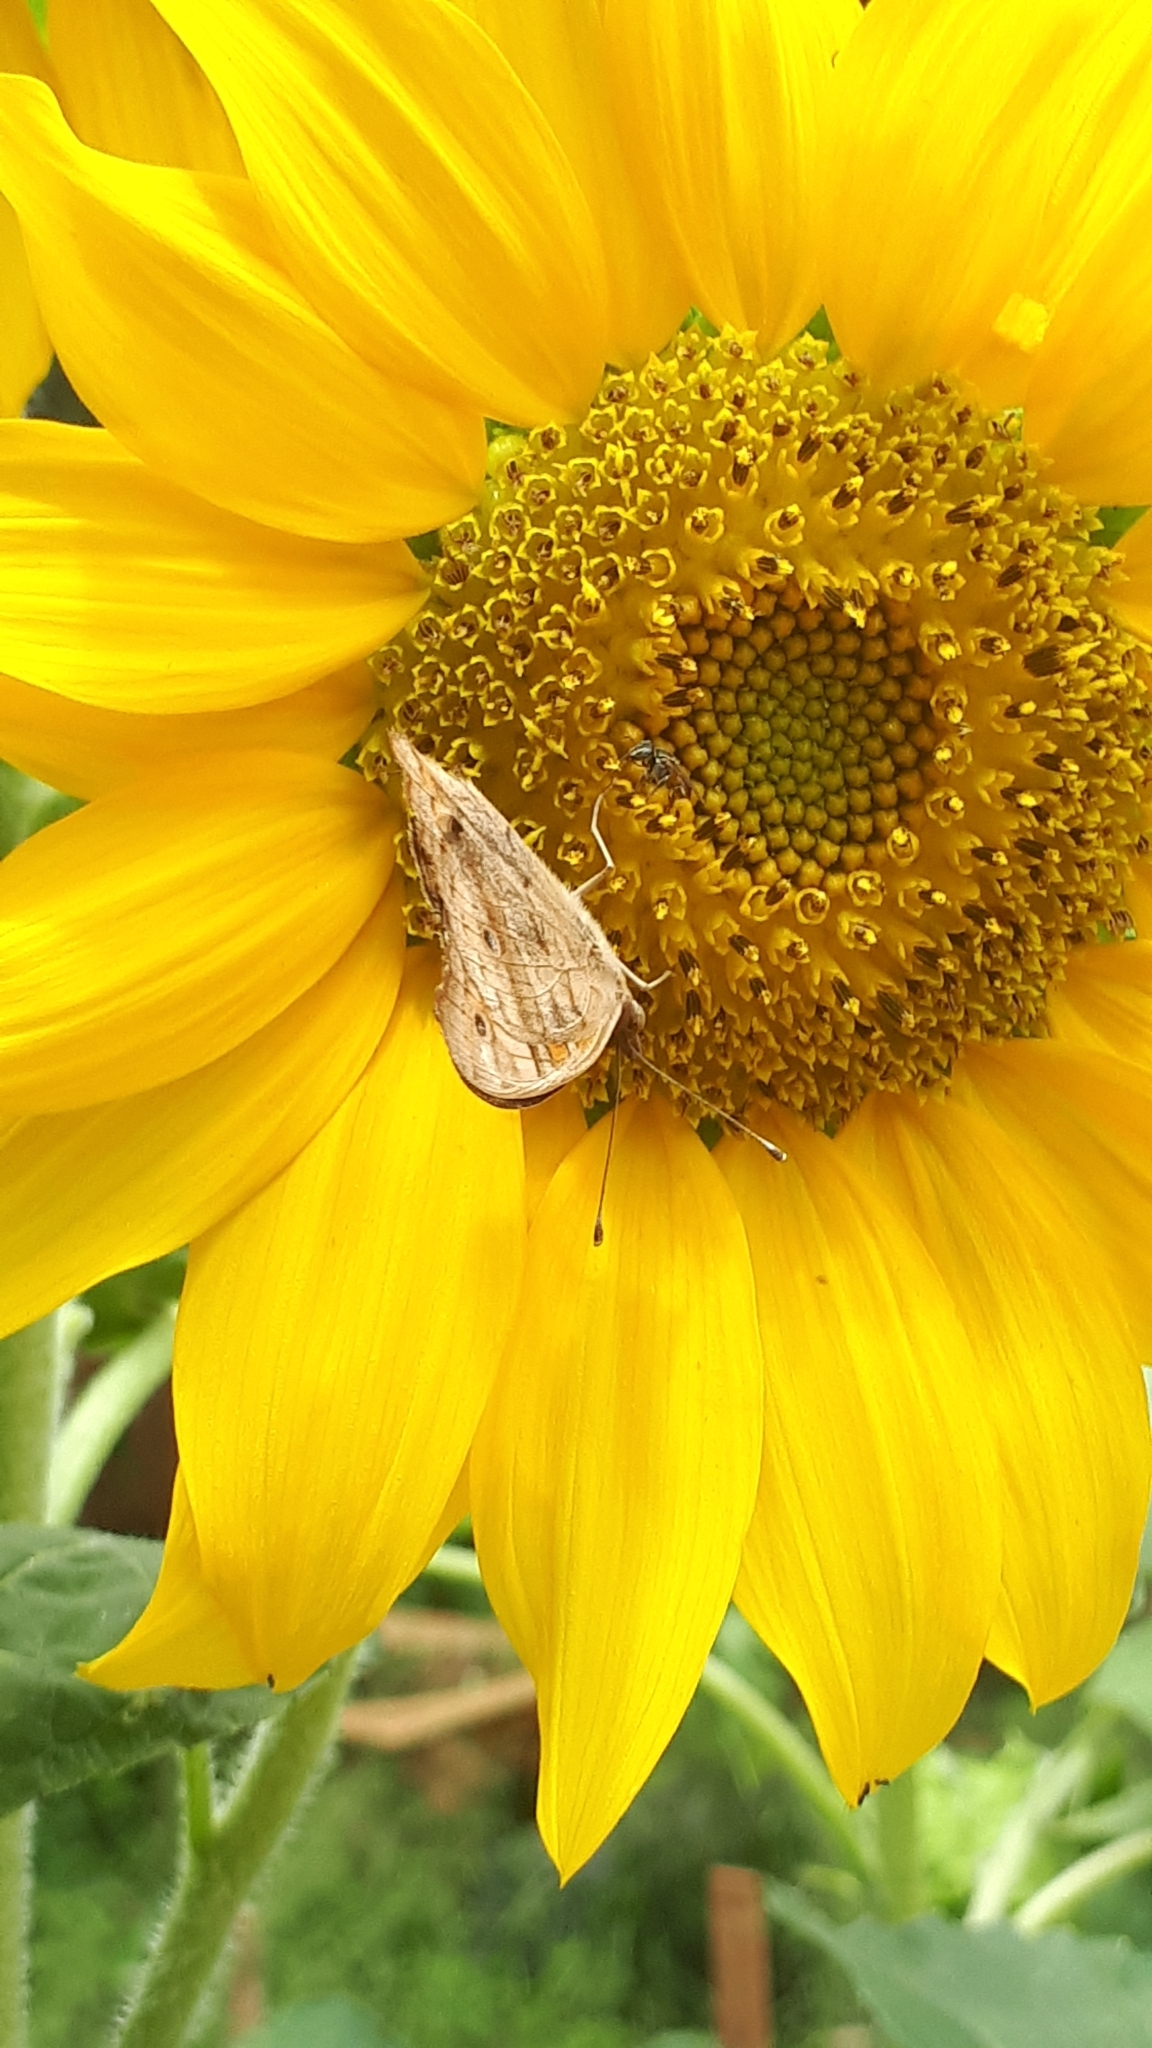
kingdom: Animalia
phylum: Arthropoda
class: Insecta
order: Lepidoptera
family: Nymphalidae
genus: Junonia
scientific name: Junonia evarete
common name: Black mangrove buckeye
